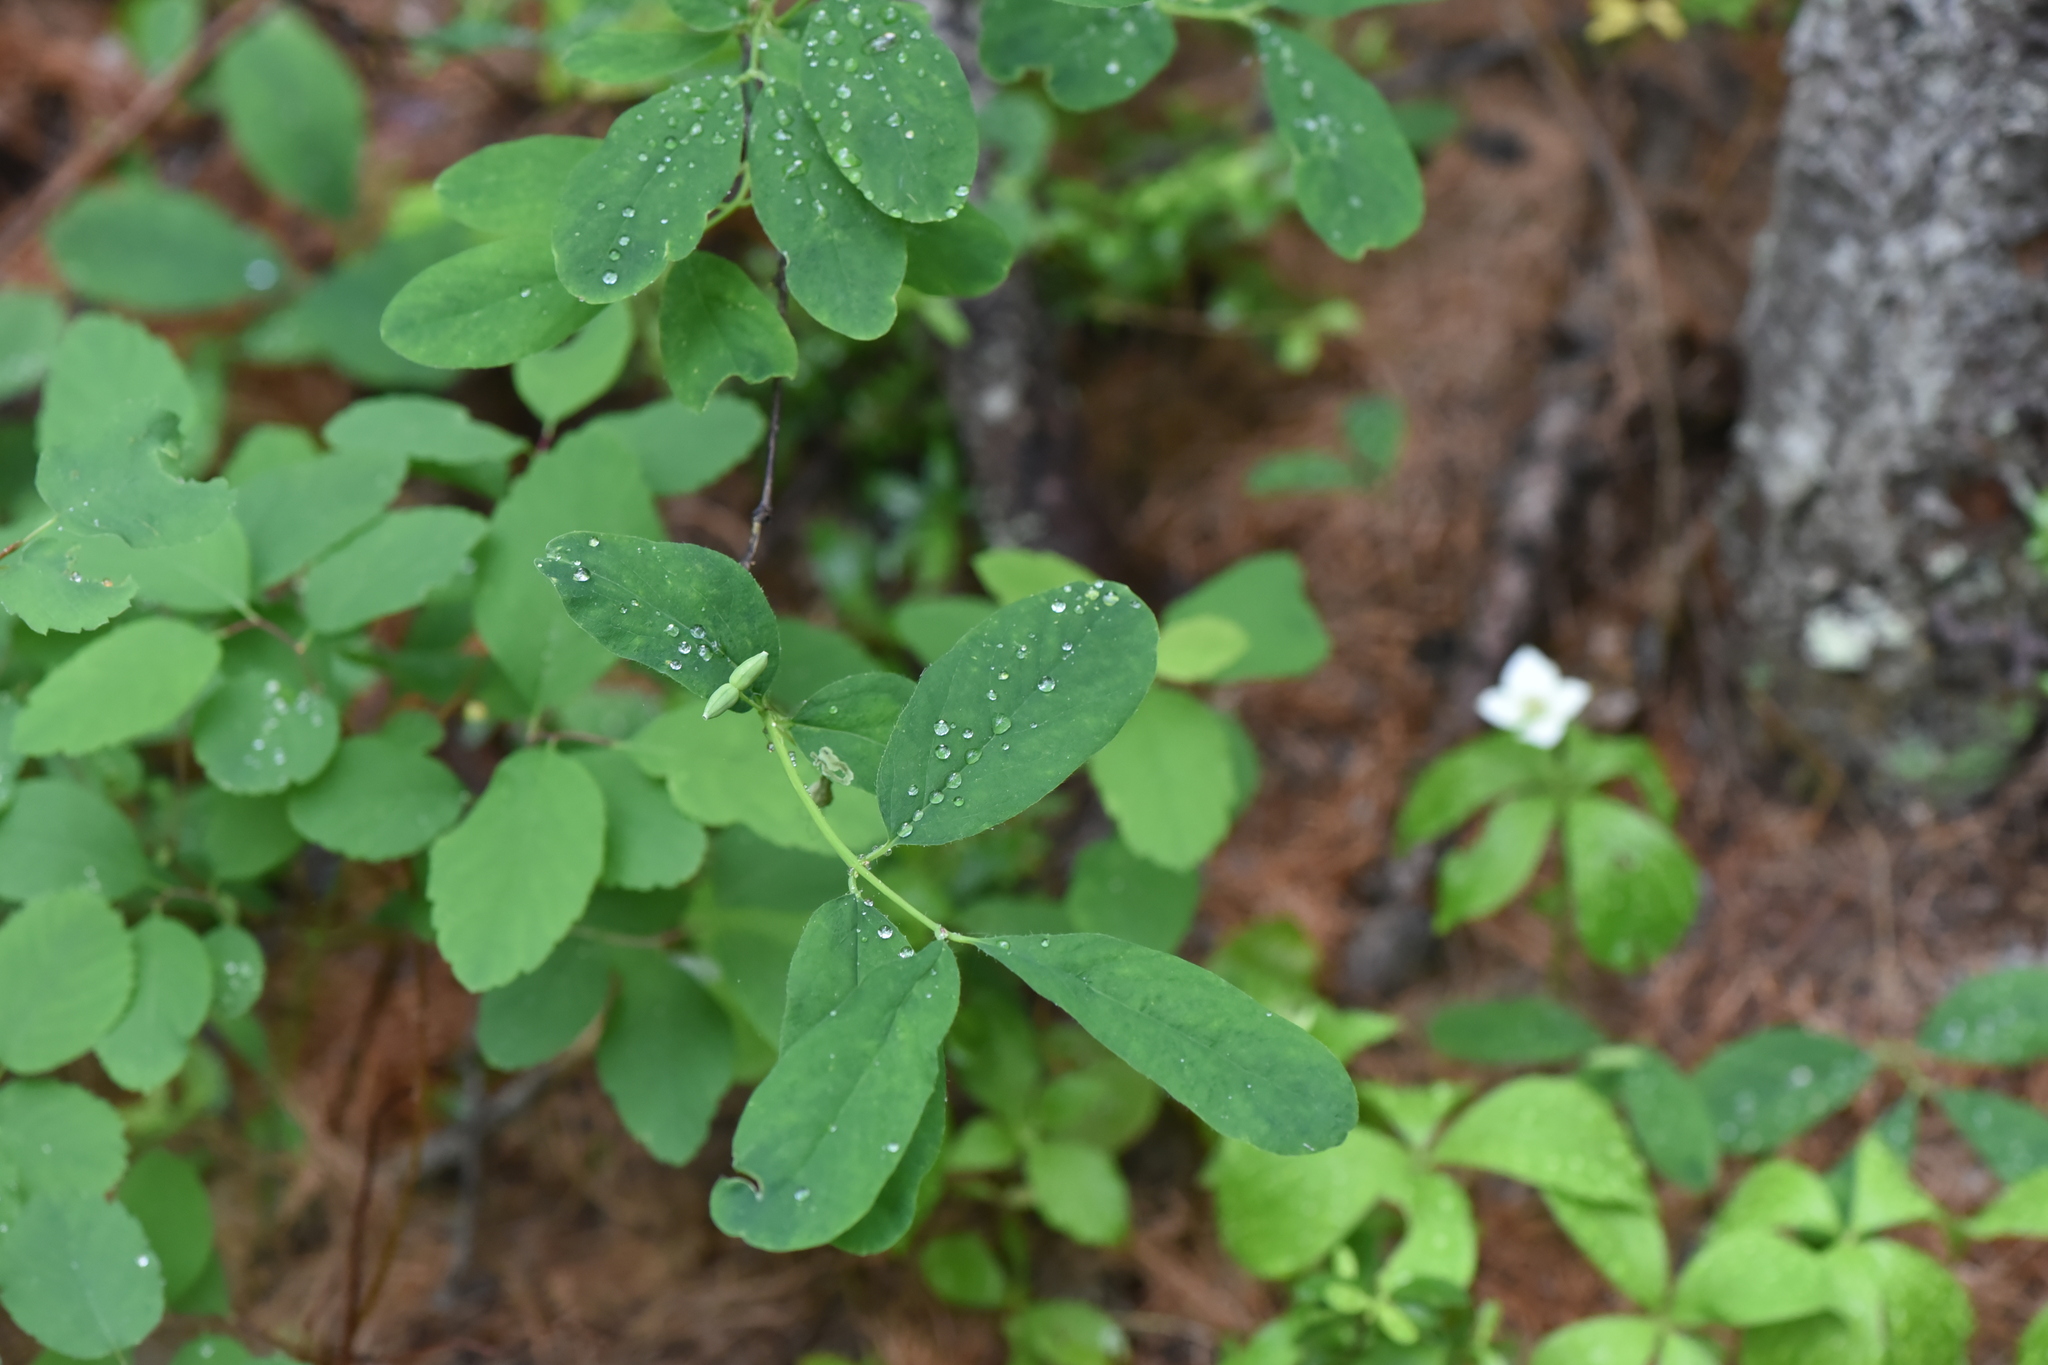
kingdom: Plantae
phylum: Tracheophyta
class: Magnoliopsida
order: Dipsacales
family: Caprifoliaceae
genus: Lonicera
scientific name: Lonicera utahensis
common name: Utah honeysuckle
